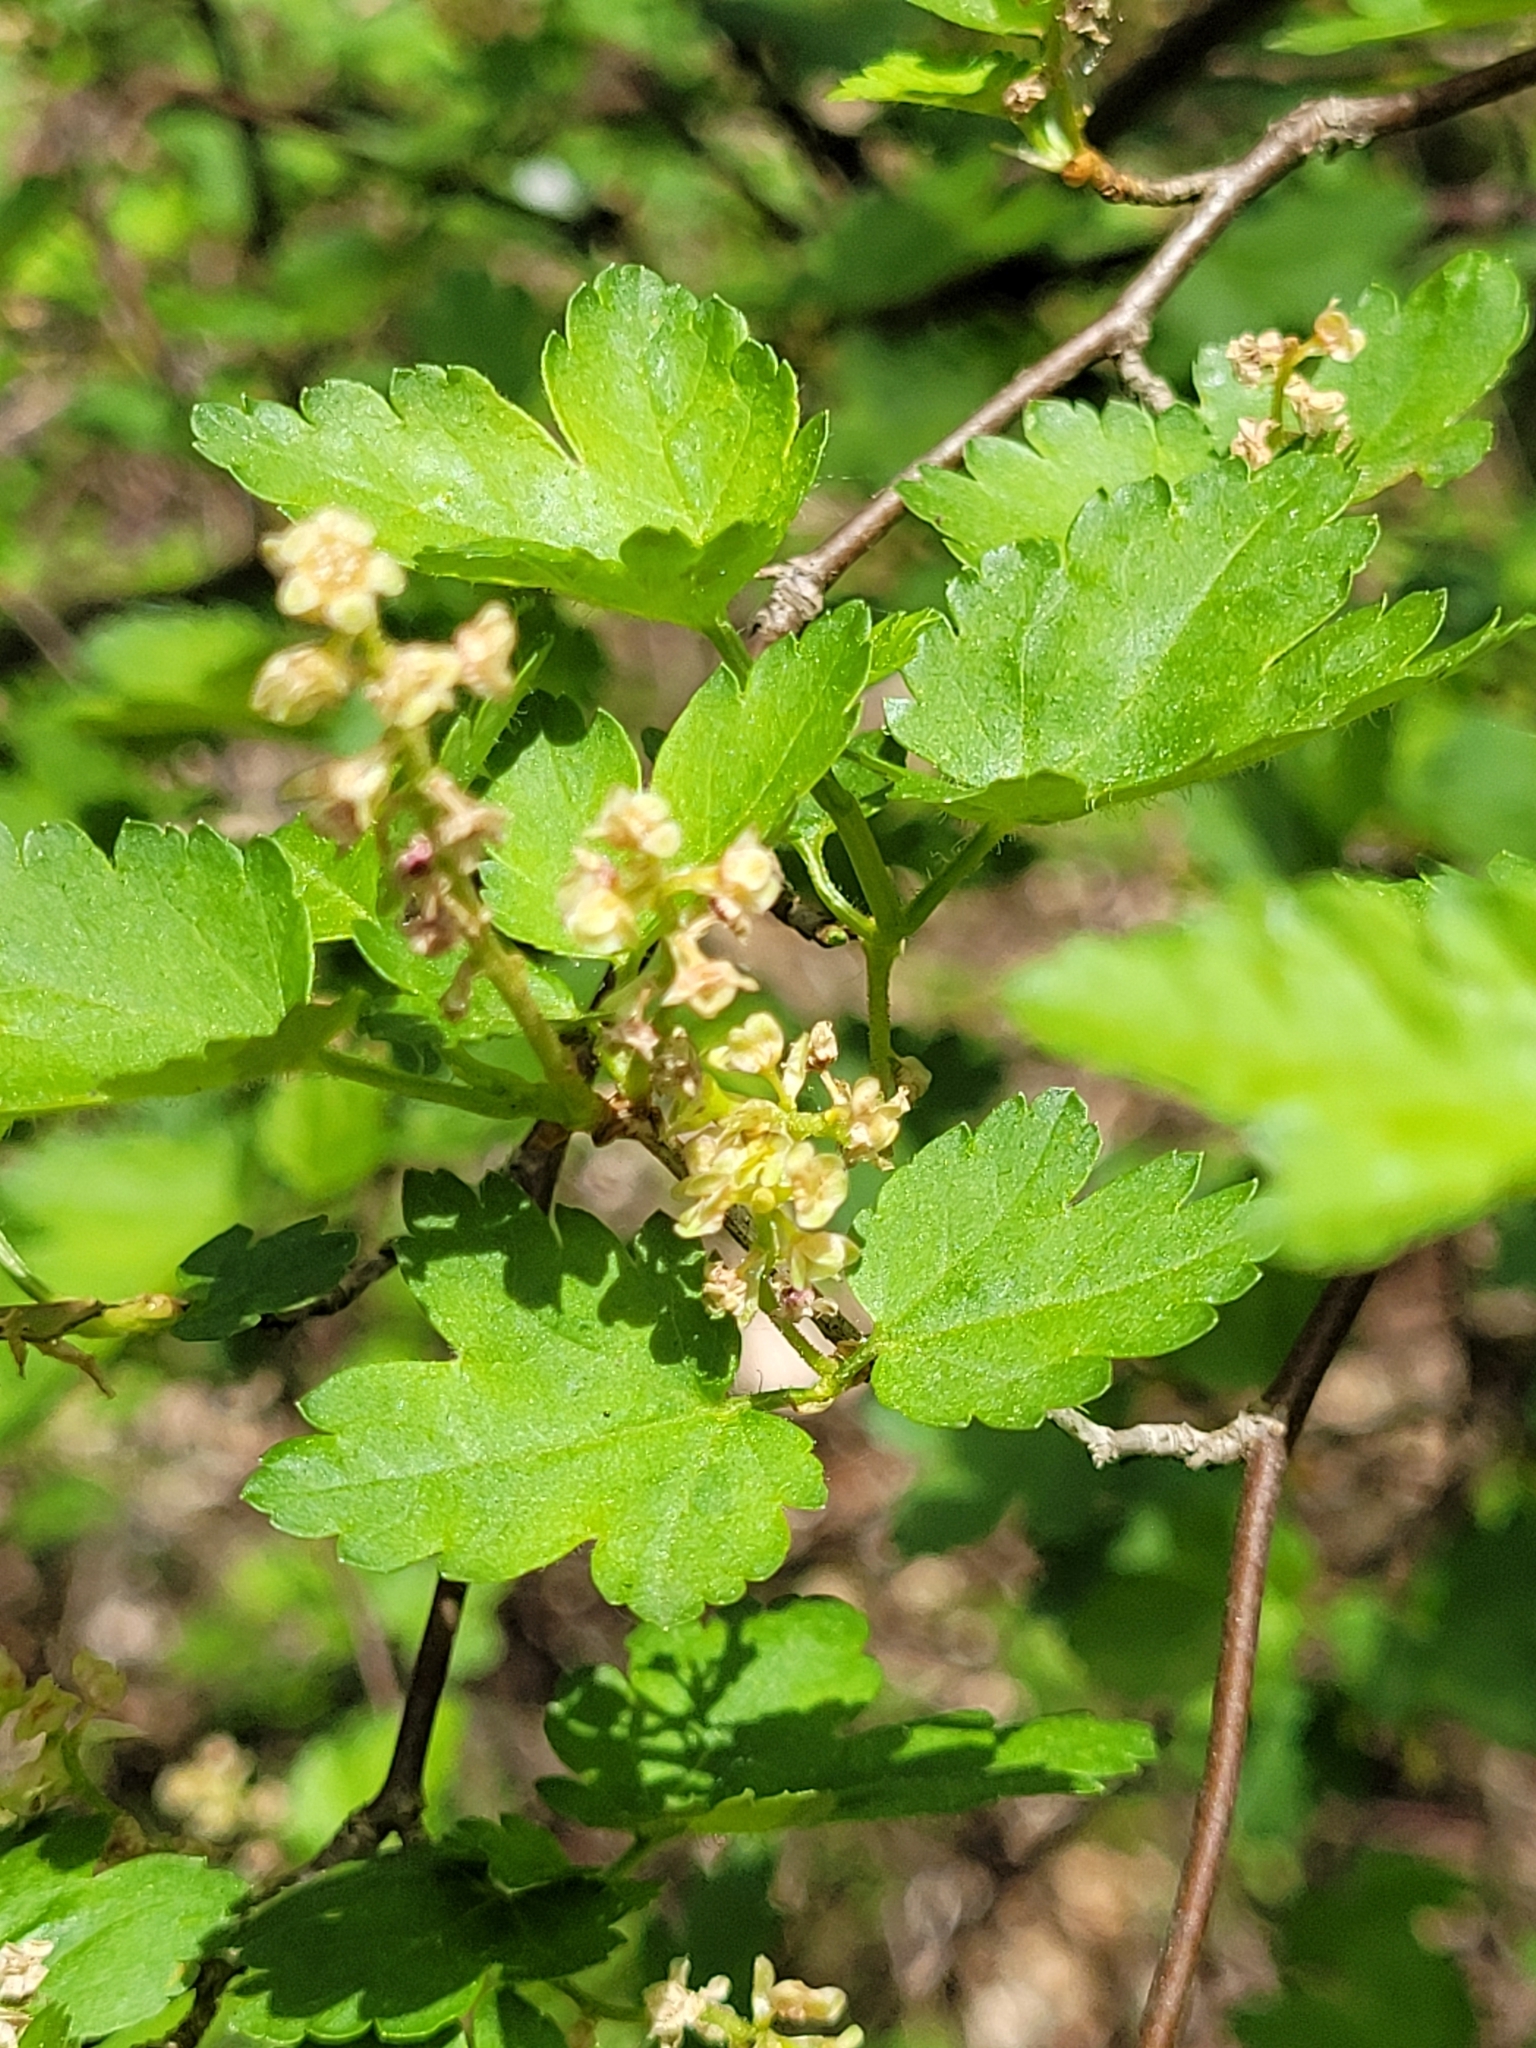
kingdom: Plantae
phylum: Tracheophyta
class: Magnoliopsida
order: Saxifragales
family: Grossulariaceae
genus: Ribes
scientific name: Ribes alpinum
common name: Alpine currant
